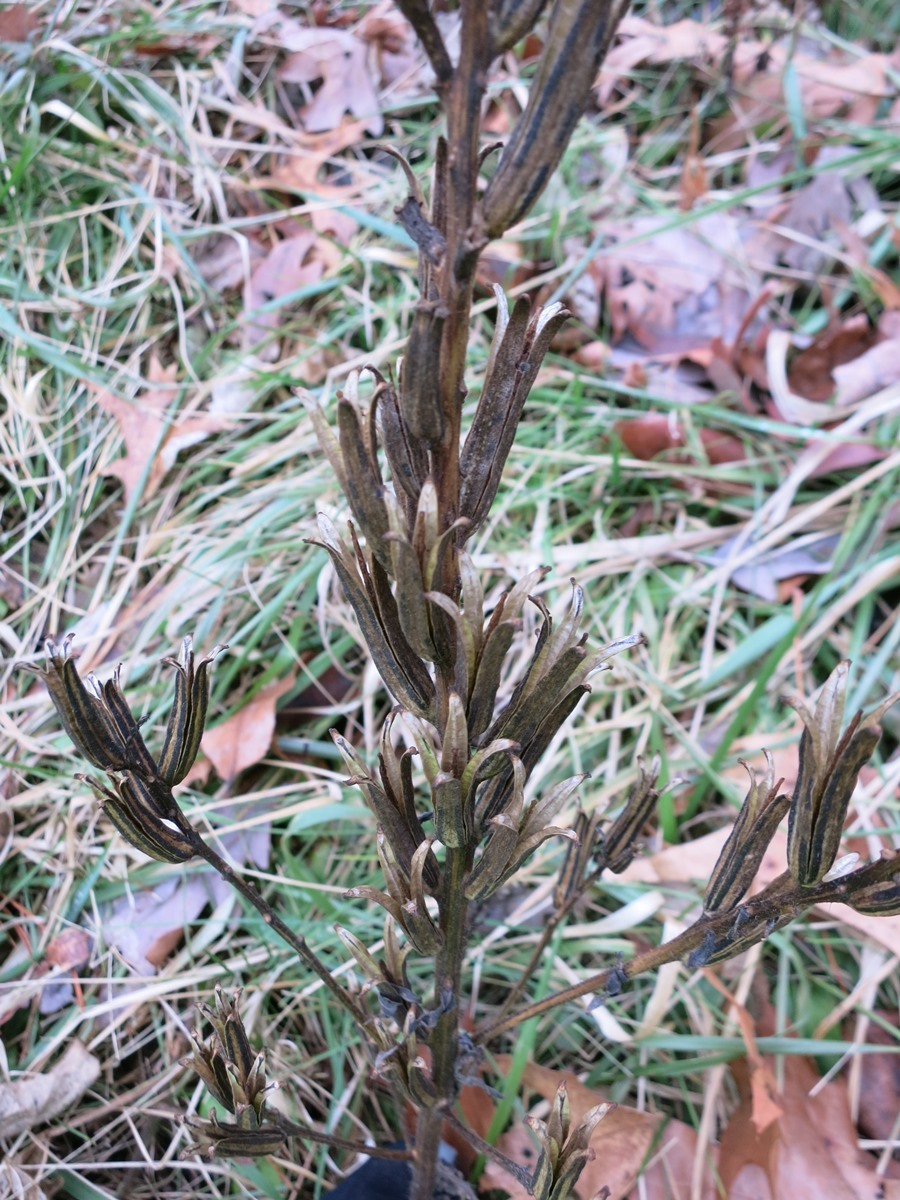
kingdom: Plantae
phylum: Tracheophyta
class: Magnoliopsida
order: Myrtales
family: Onagraceae
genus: Oenothera
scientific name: Oenothera biennis
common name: Common evening-primrose
